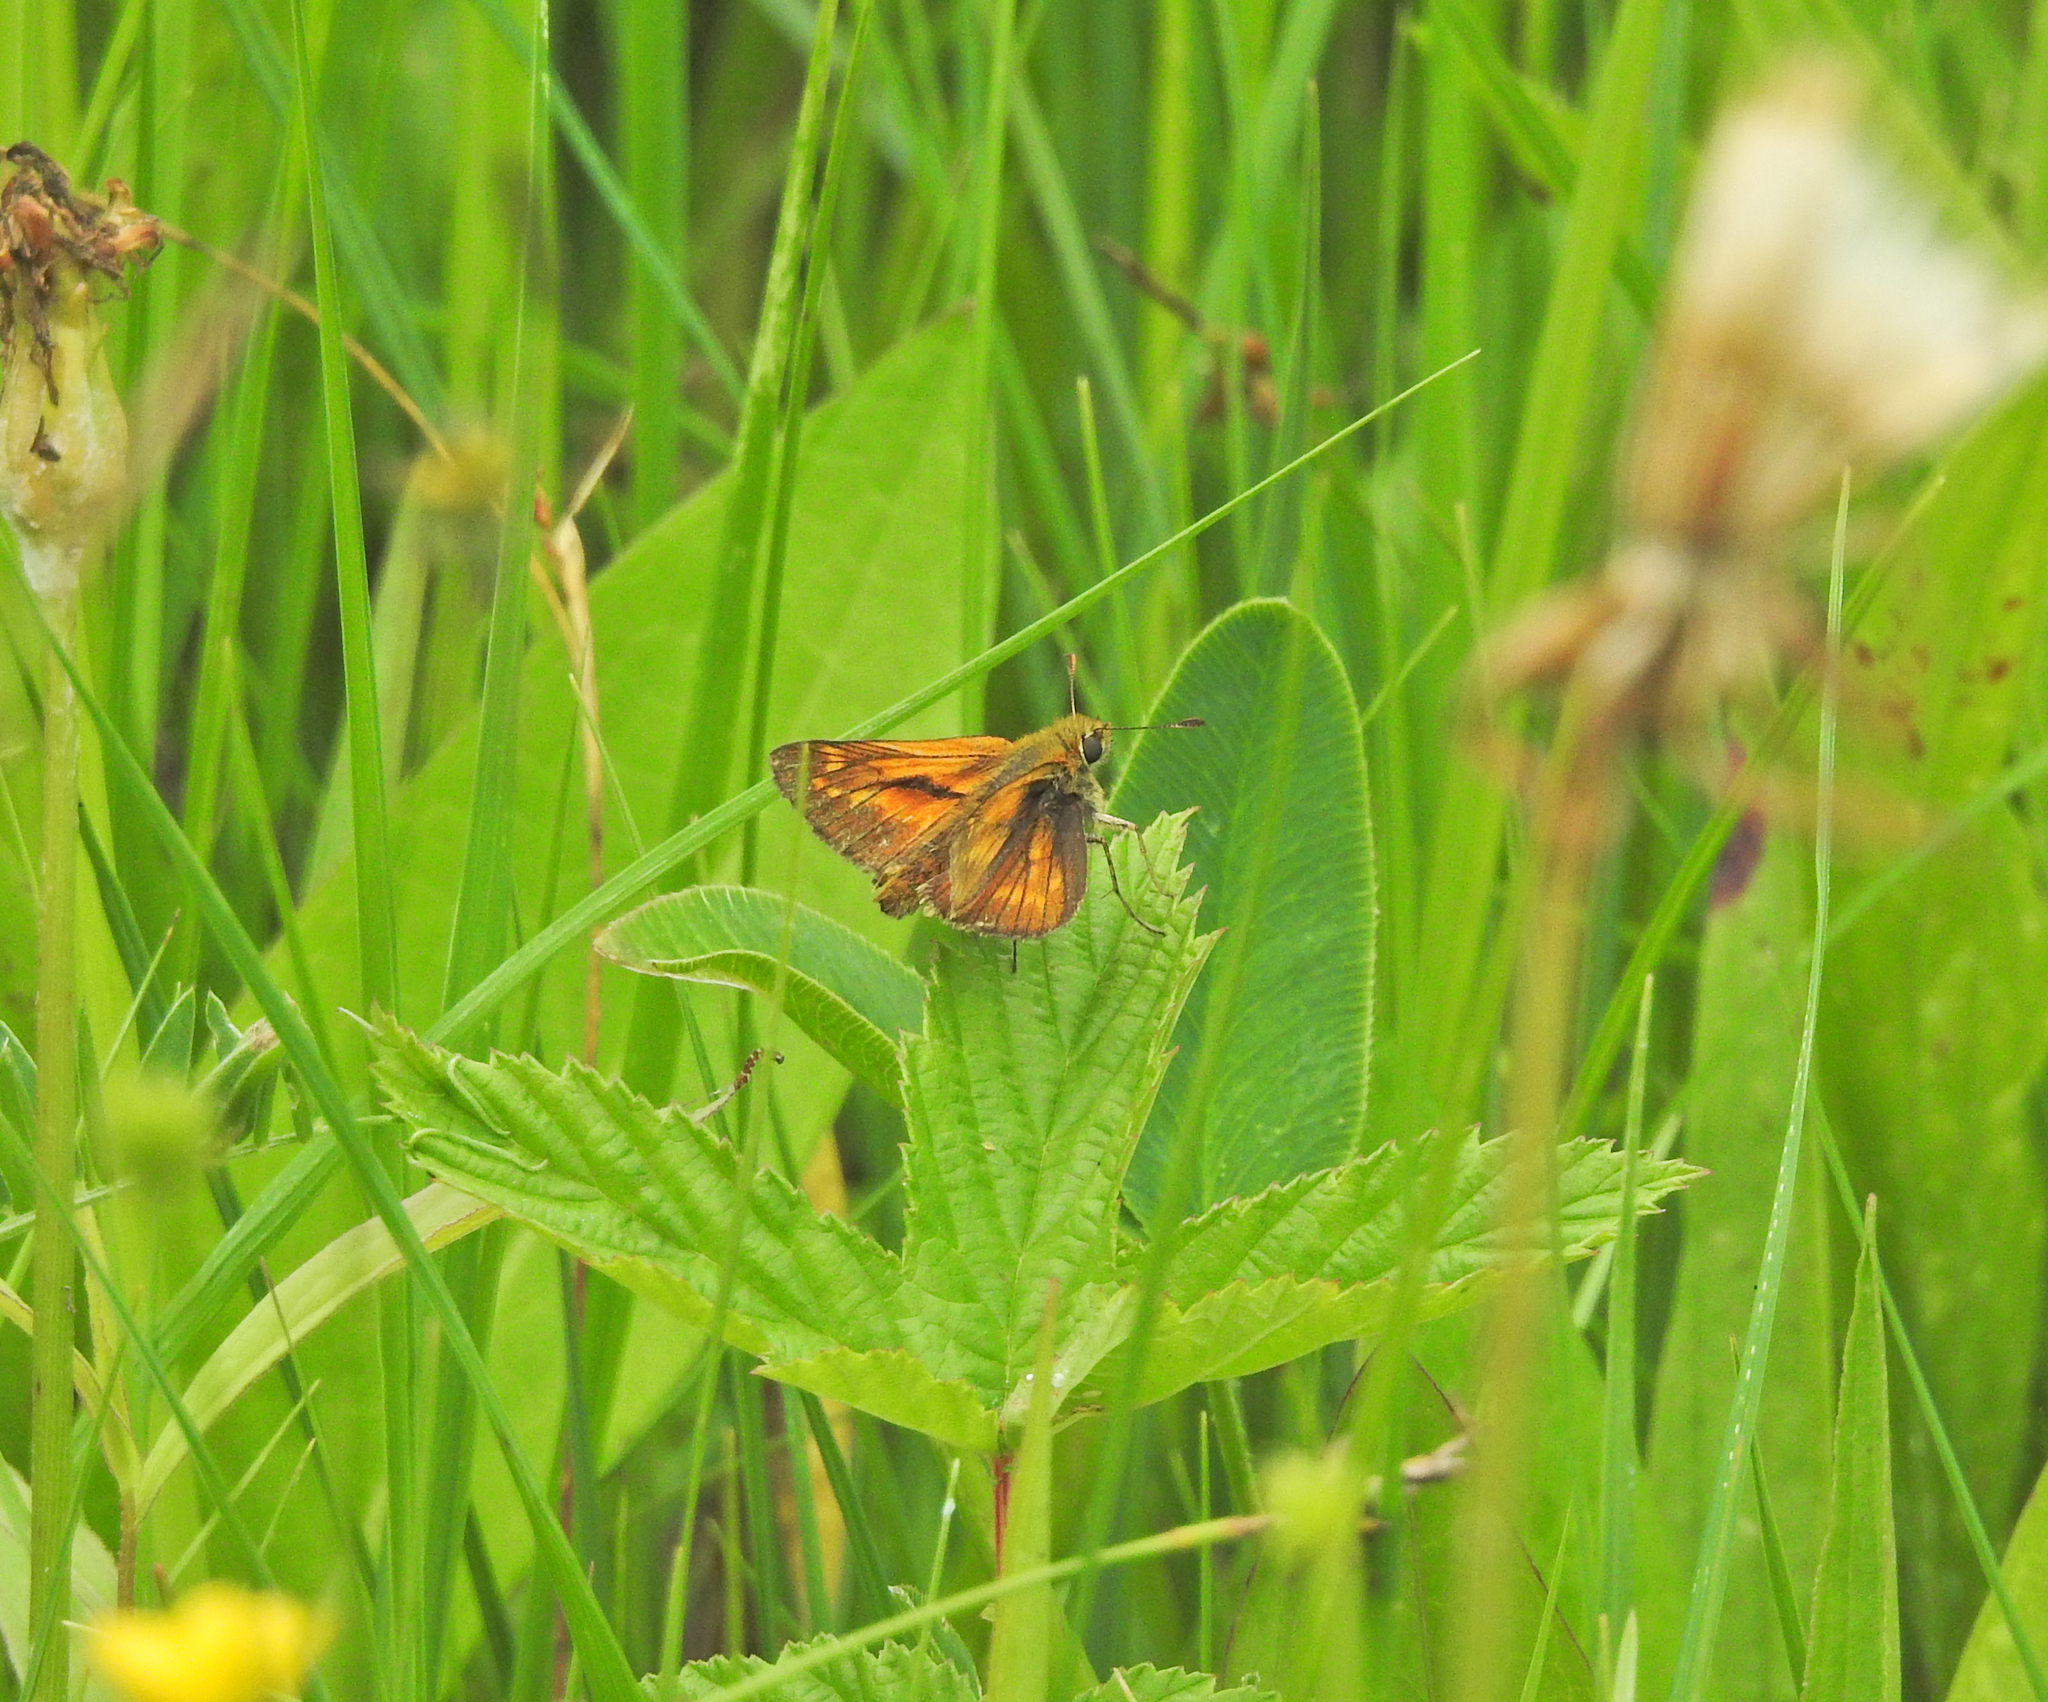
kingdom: Animalia
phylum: Arthropoda
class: Insecta
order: Lepidoptera
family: Hesperiidae
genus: Ochlodes
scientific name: Ochlodes venata
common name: Large skipper
